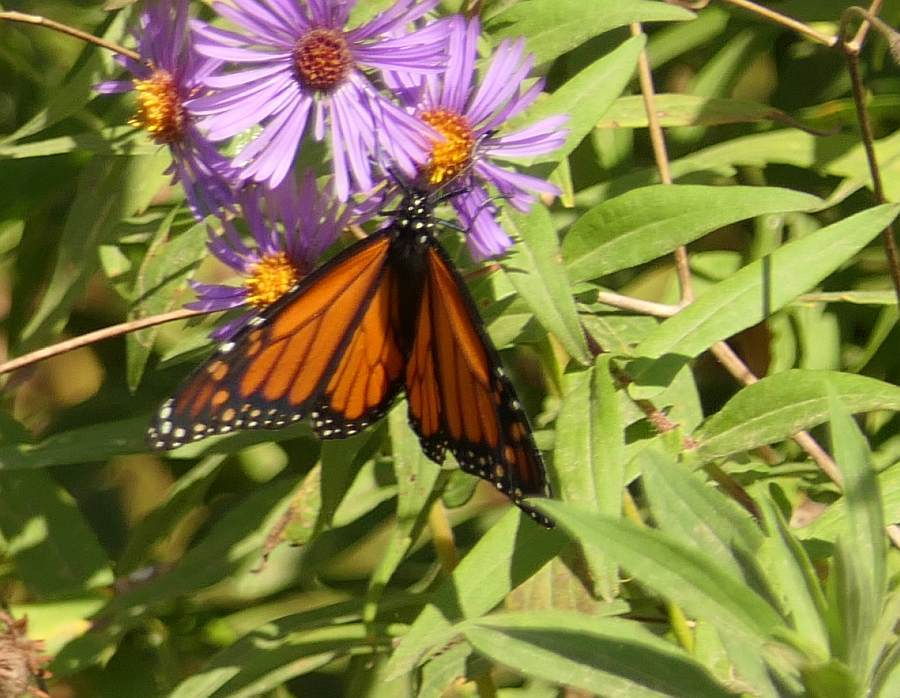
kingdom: Animalia
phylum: Arthropoda
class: Insecta
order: Lepidoptera
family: Nymphalidae
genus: Danaus
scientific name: Danaus plexippus
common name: Monarch
